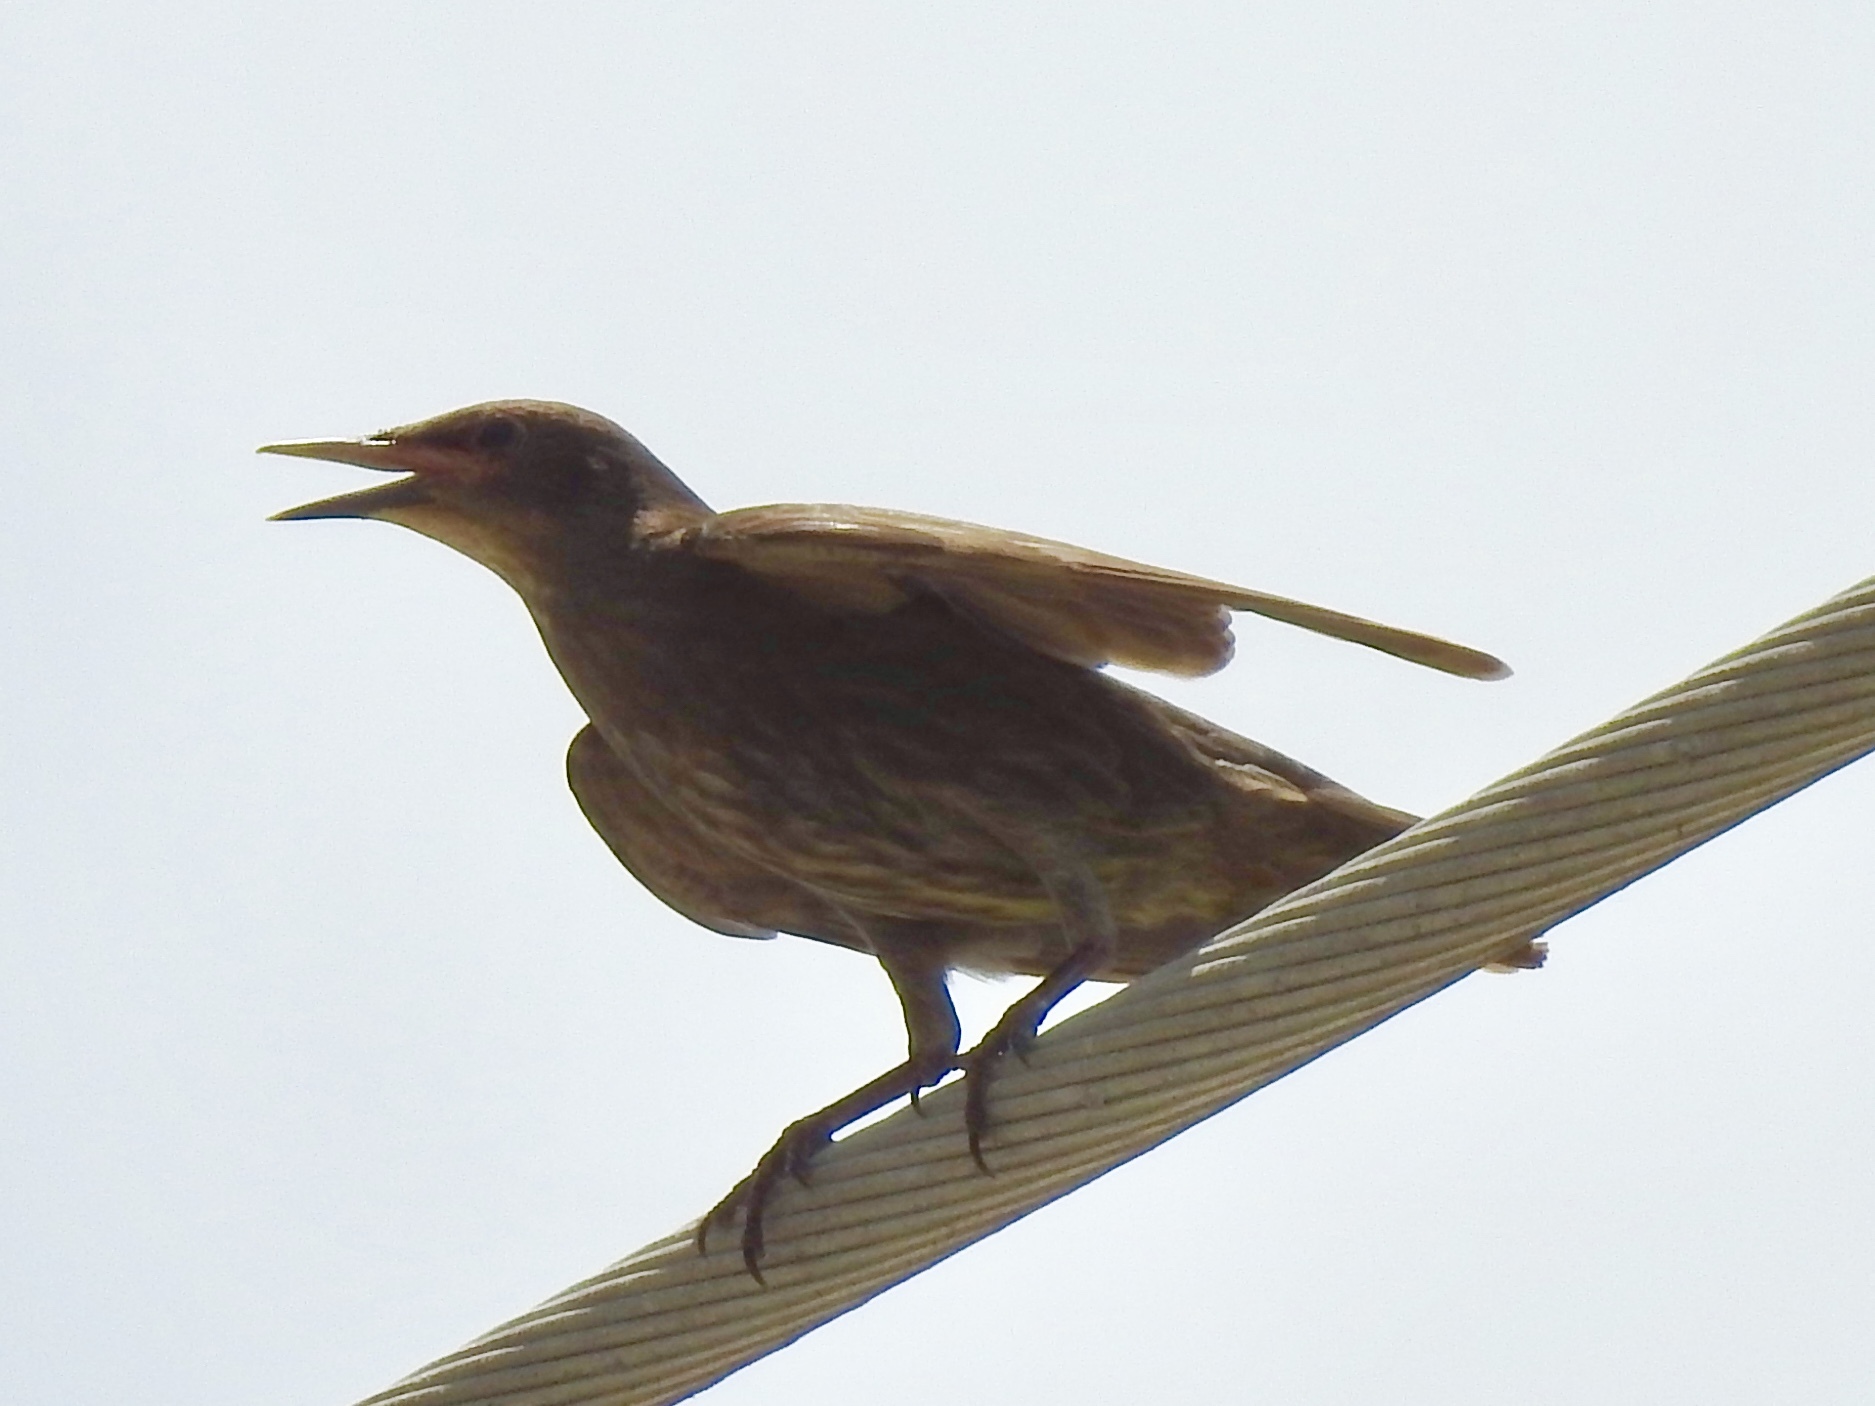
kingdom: Animalia
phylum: Chordata
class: Aves
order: Passeriformes
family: Sturnidae
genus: Sturnus
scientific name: Sturnus vulgaris
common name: Common starling
